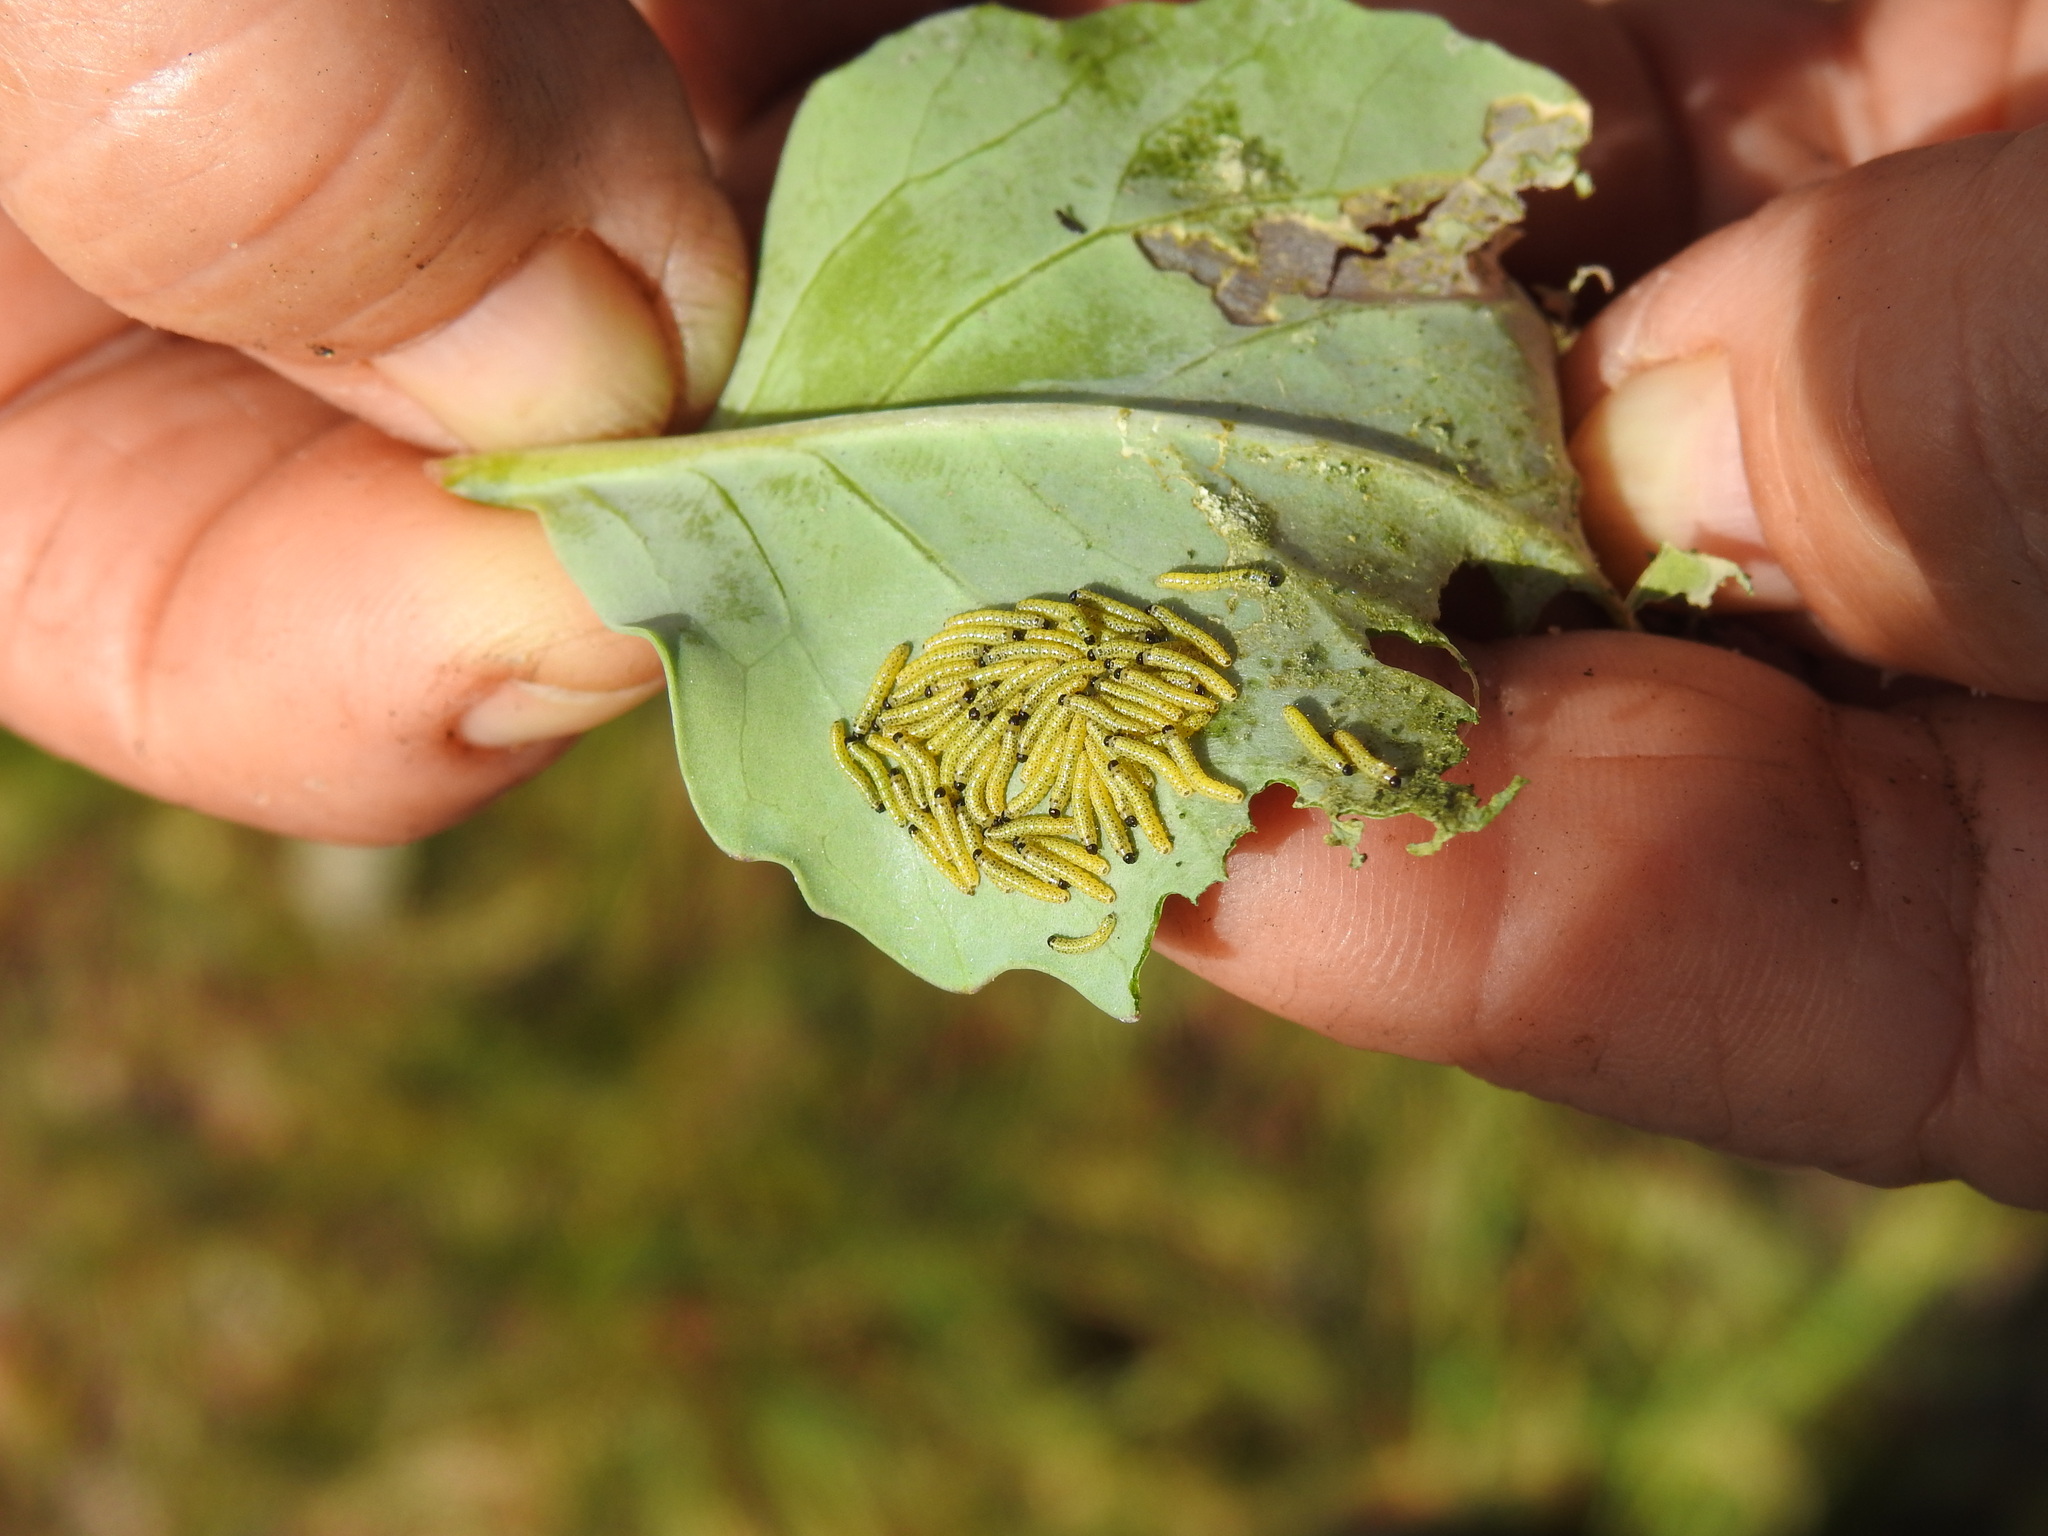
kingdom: Animalia
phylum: Arthropoda
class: Insecta
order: Lepidoptera
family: Pieridae
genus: Pieris
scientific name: Pieris brassicae
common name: Large white
